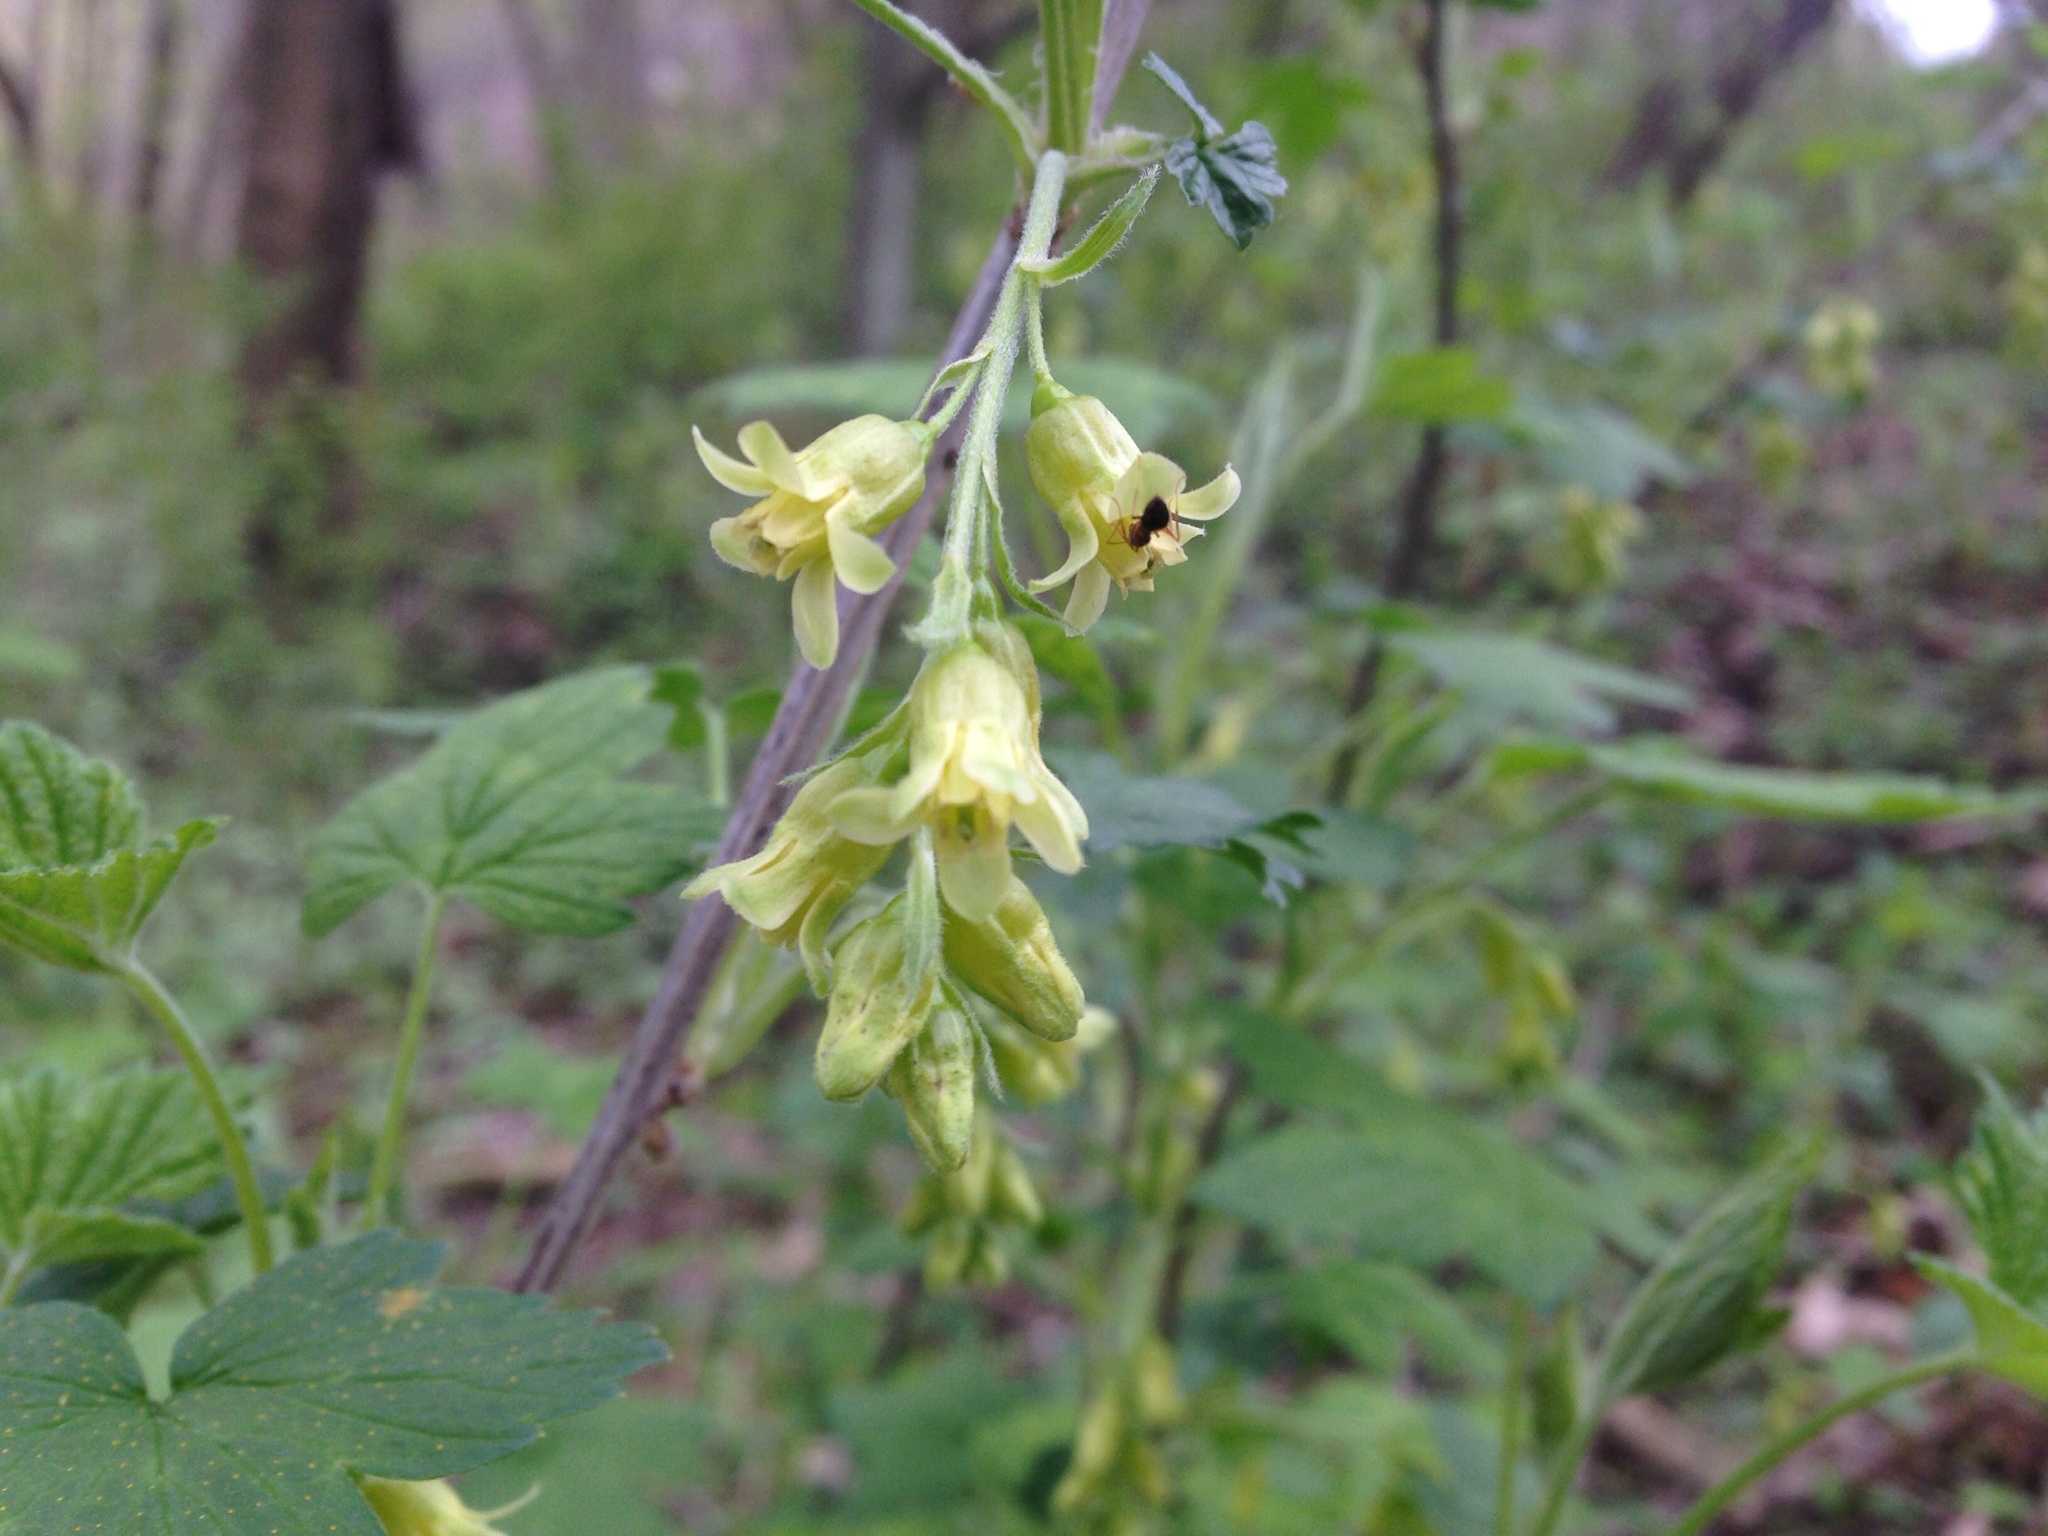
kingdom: Plantae
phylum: Tracheophyta
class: Magnoliopsida
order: Saxifragales
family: Grossulariaceae
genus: Ribes
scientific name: Ribes americanum
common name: American black currant
